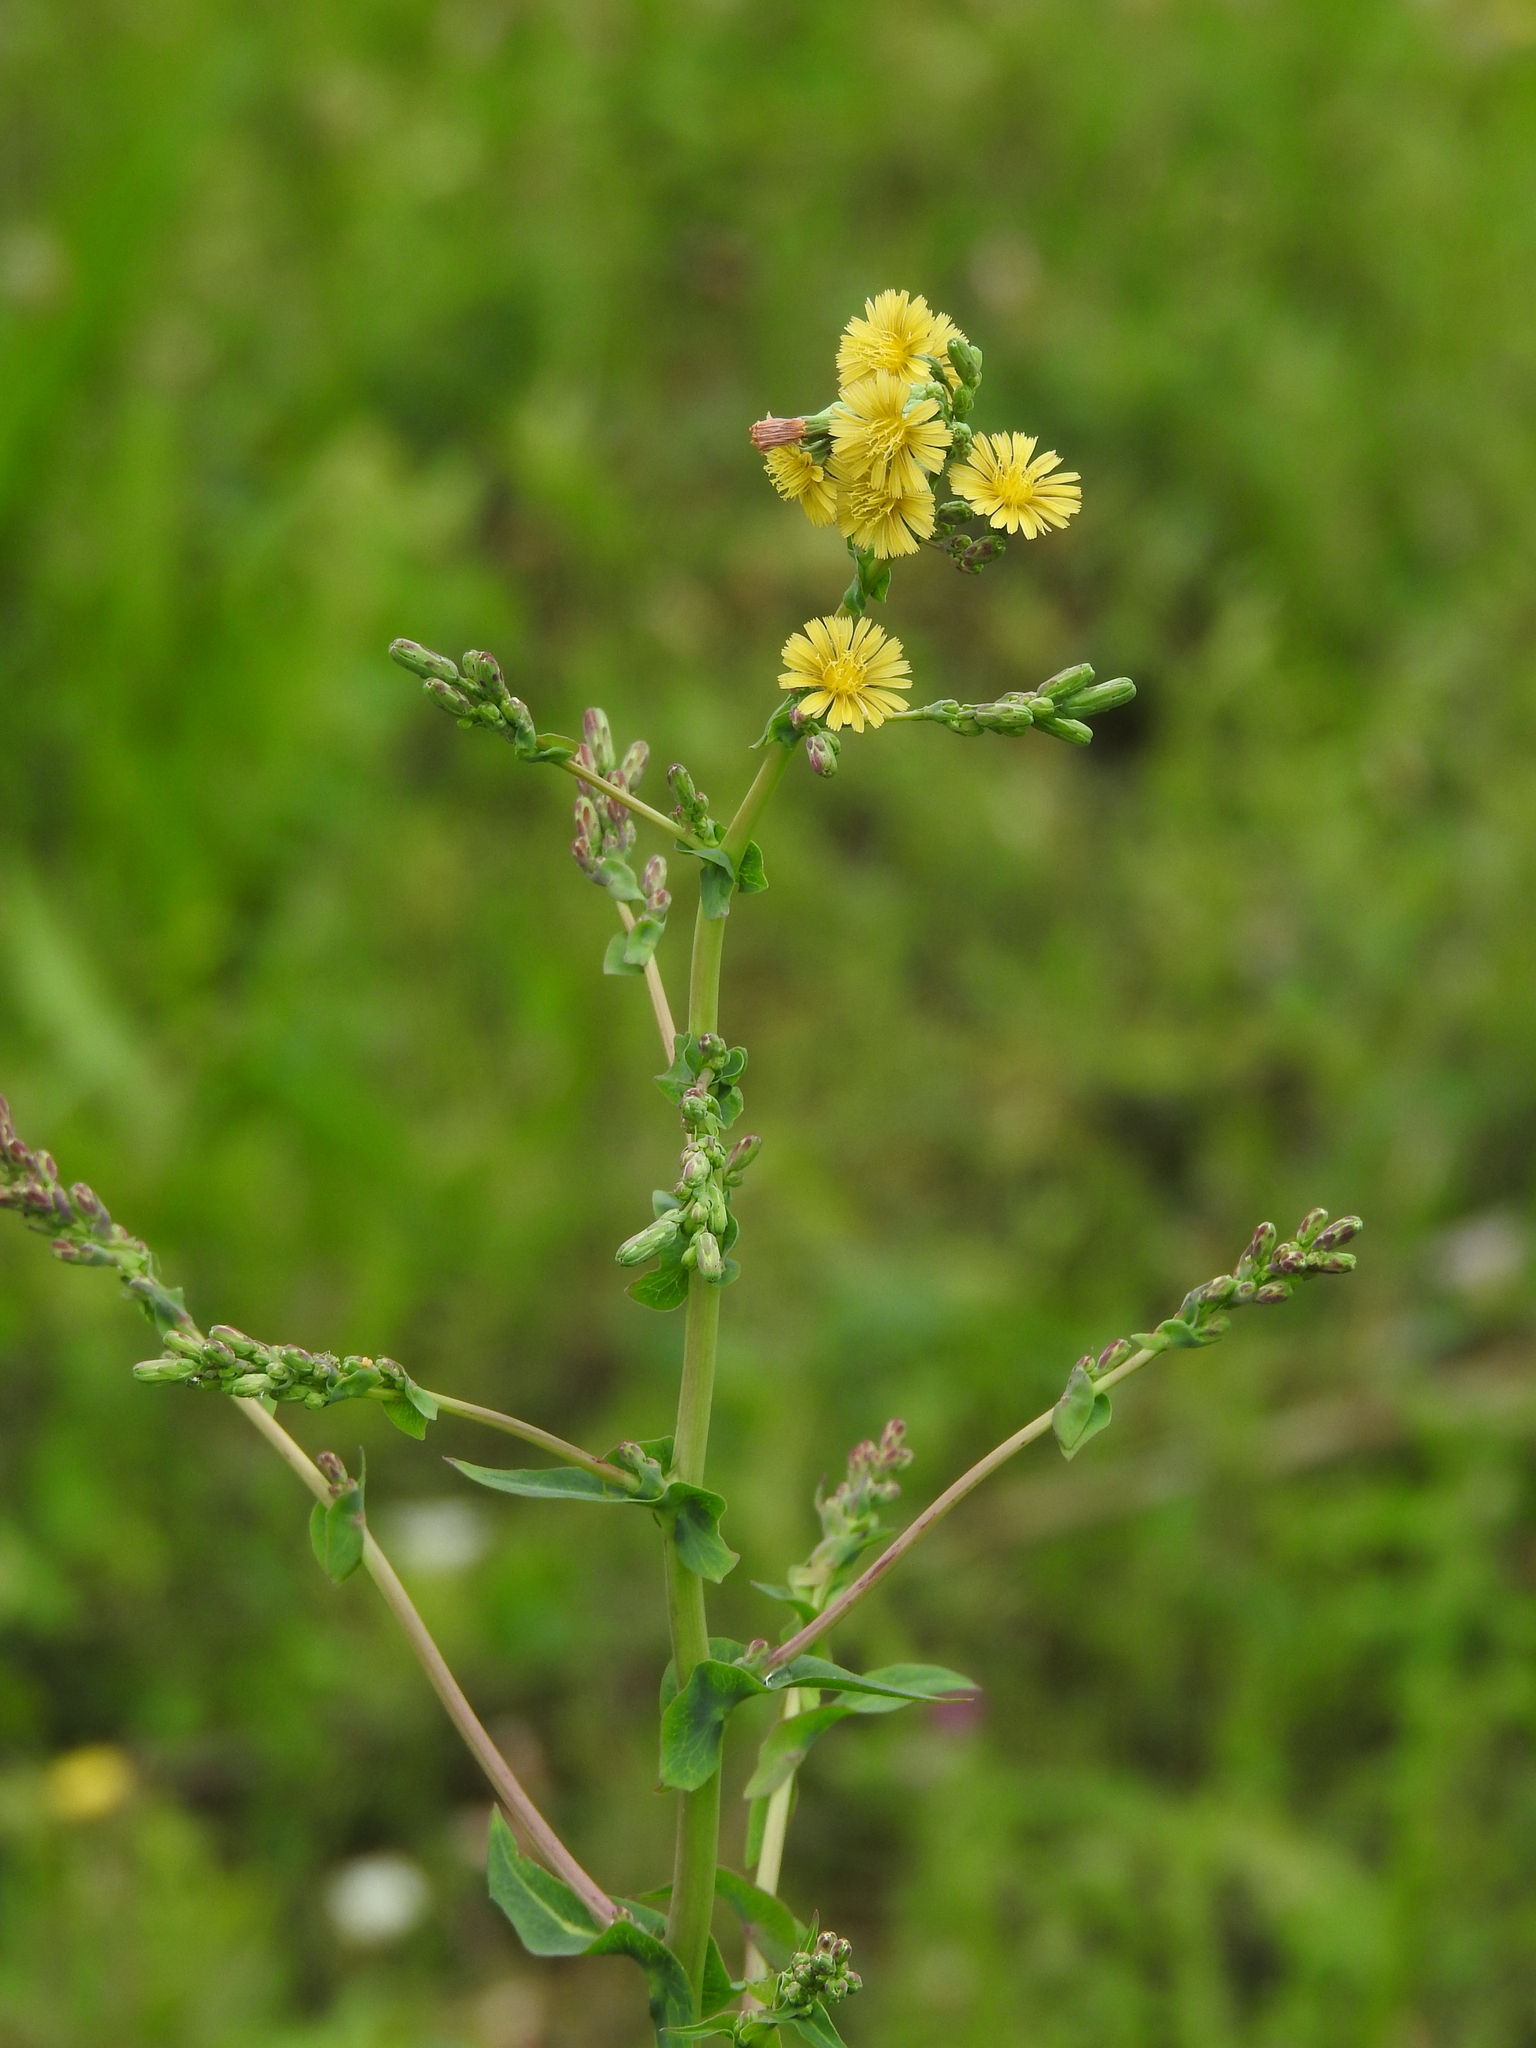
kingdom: Plantae
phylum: Tracheophyta
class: Magnoliopsida
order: Asterales
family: Asteraceae
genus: Lactuca
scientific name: Lactuca serriola
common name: Prickly lettuce
